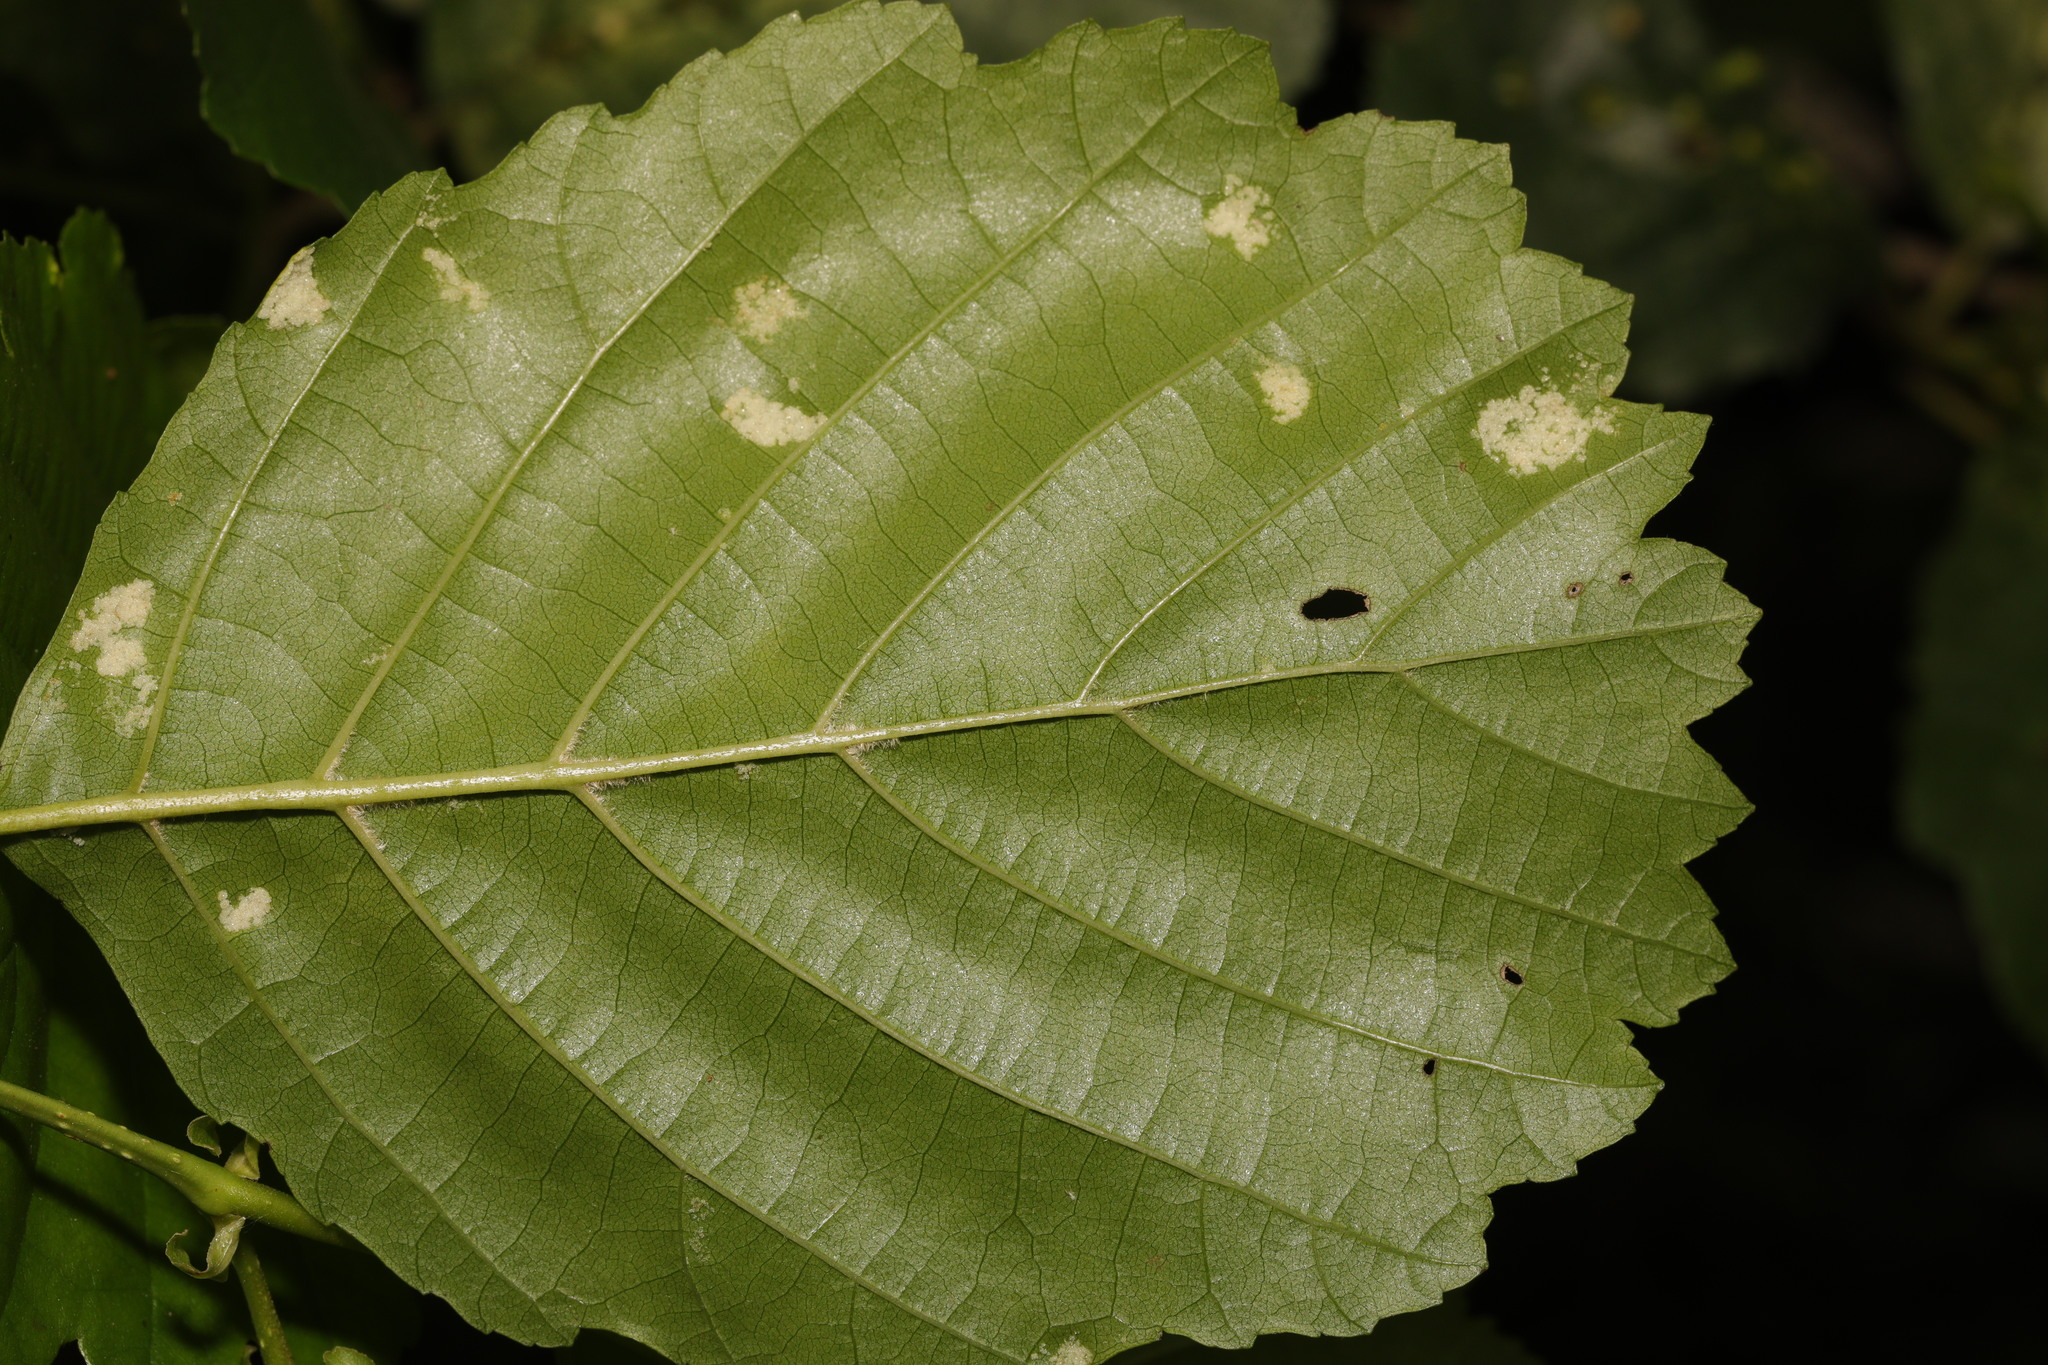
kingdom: Animalia
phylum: Arthropoda
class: Arachnida
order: Trombidiformes
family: Eriophyidae
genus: Acalitus
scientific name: Acalitus brevitarsus
